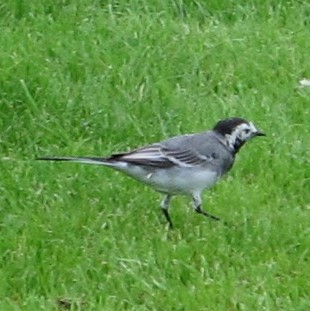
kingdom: Animalia
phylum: Chordata
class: Aves
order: Passeriformes
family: Motacillidae
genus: Motacilla
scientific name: Motacilla alba
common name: White wagtail
